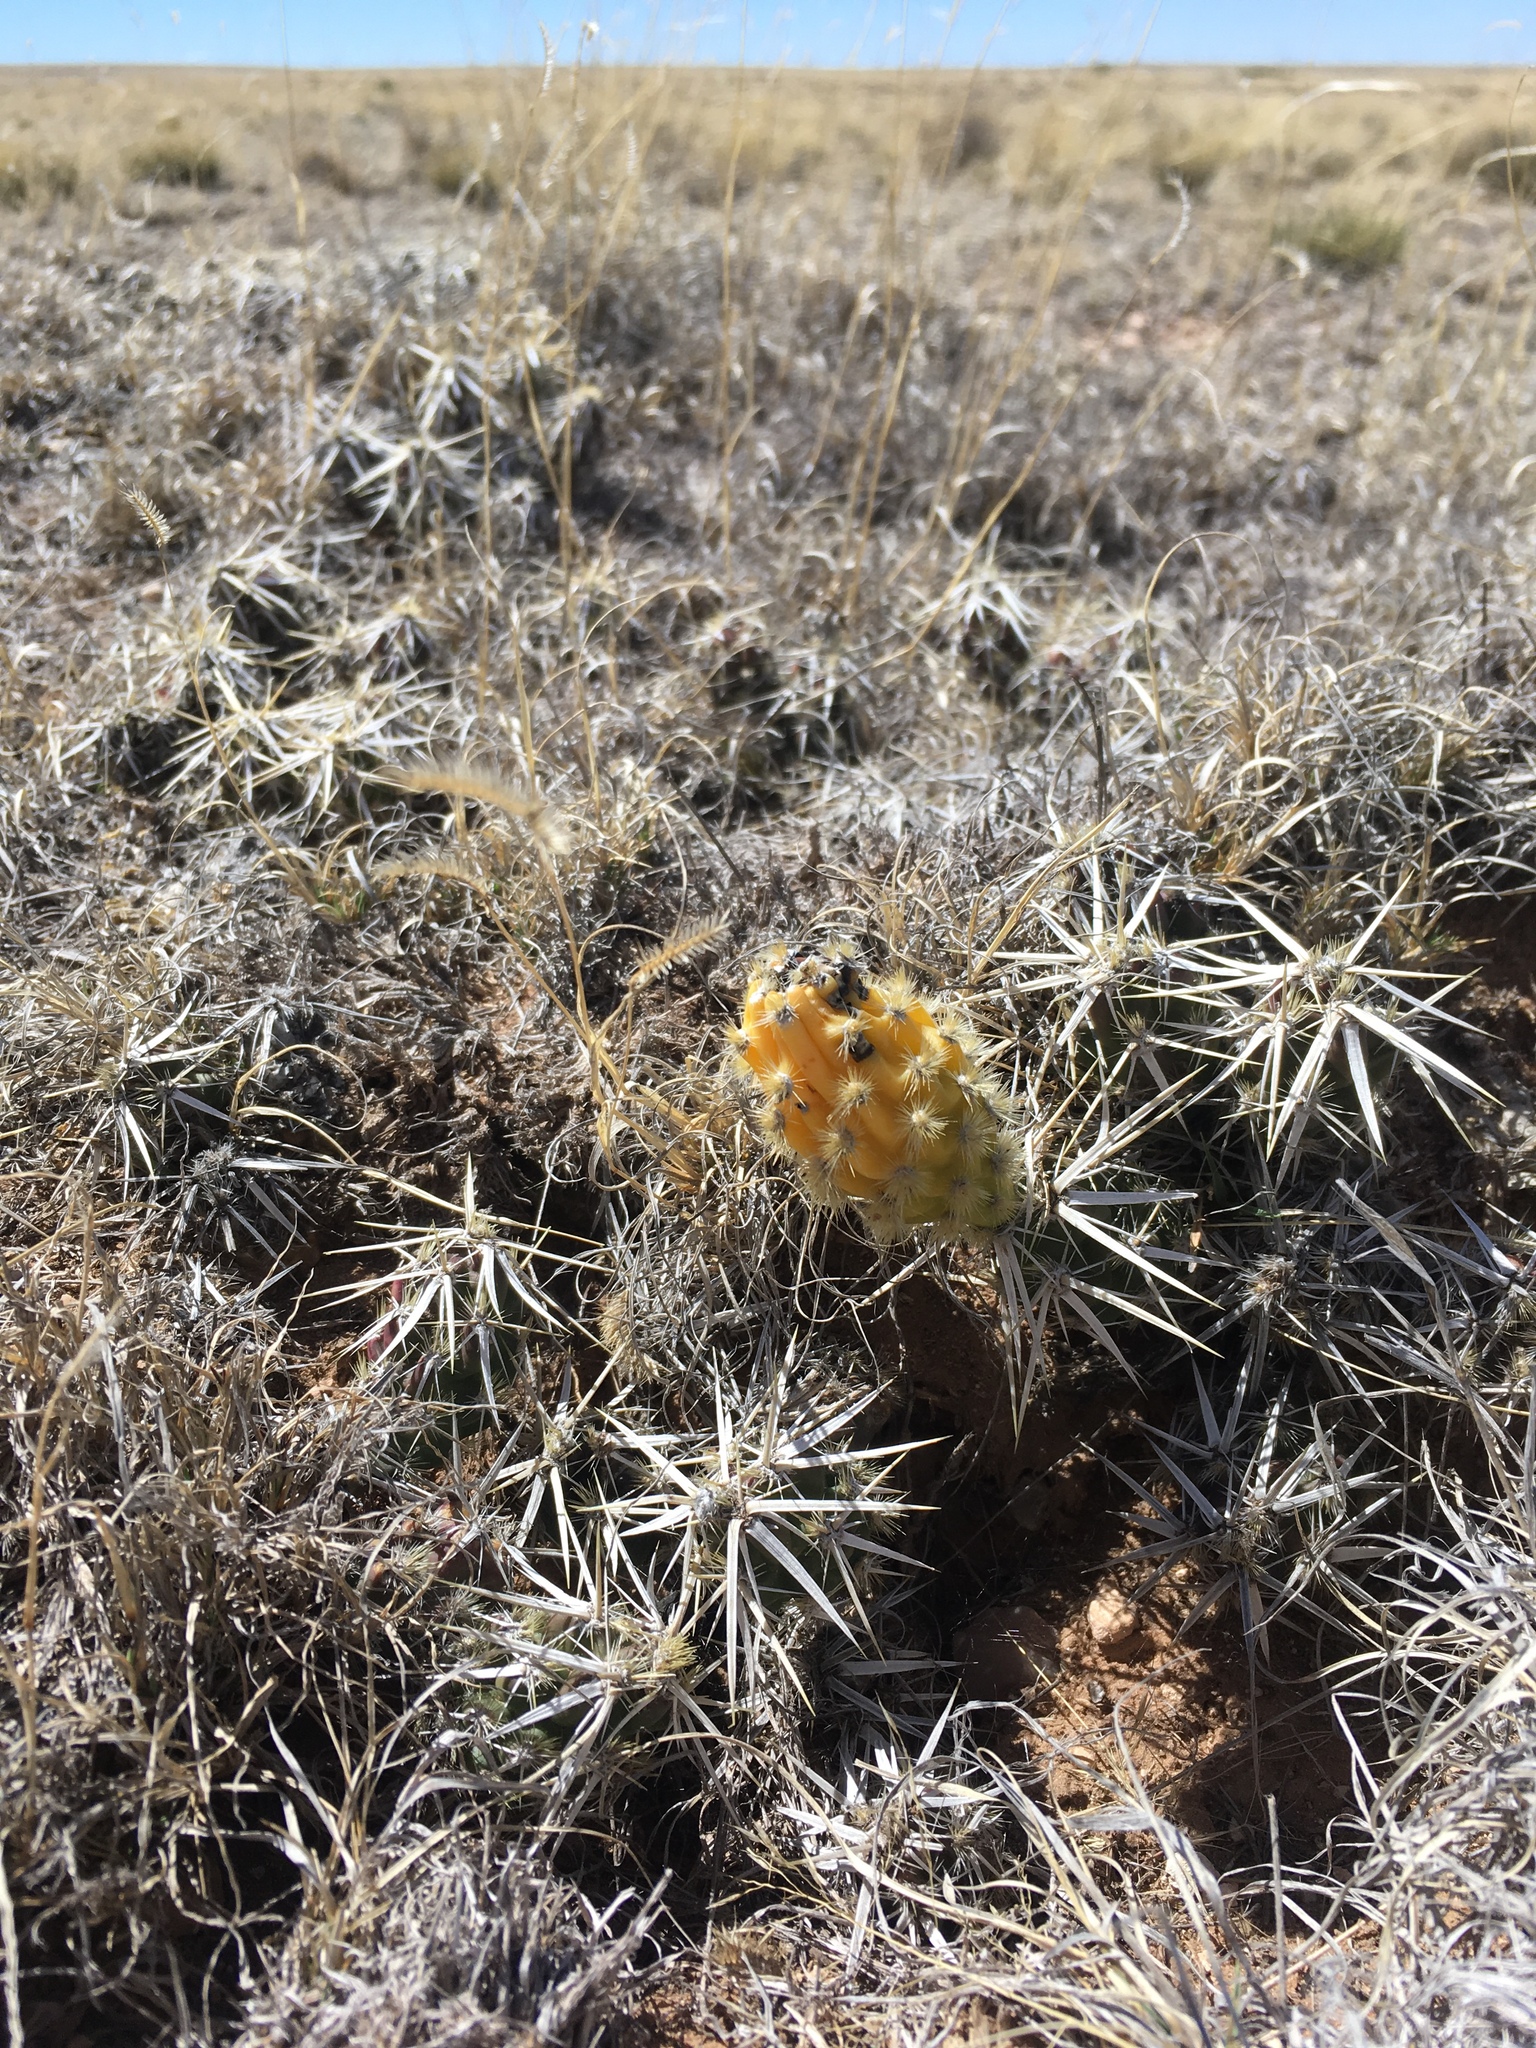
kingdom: Plantae
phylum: Tracheophyta
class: Magnoliopsida
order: Caryophyllales
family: Cactaceae
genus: Grusonia
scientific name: Grusonia clavata
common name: Club cholla
